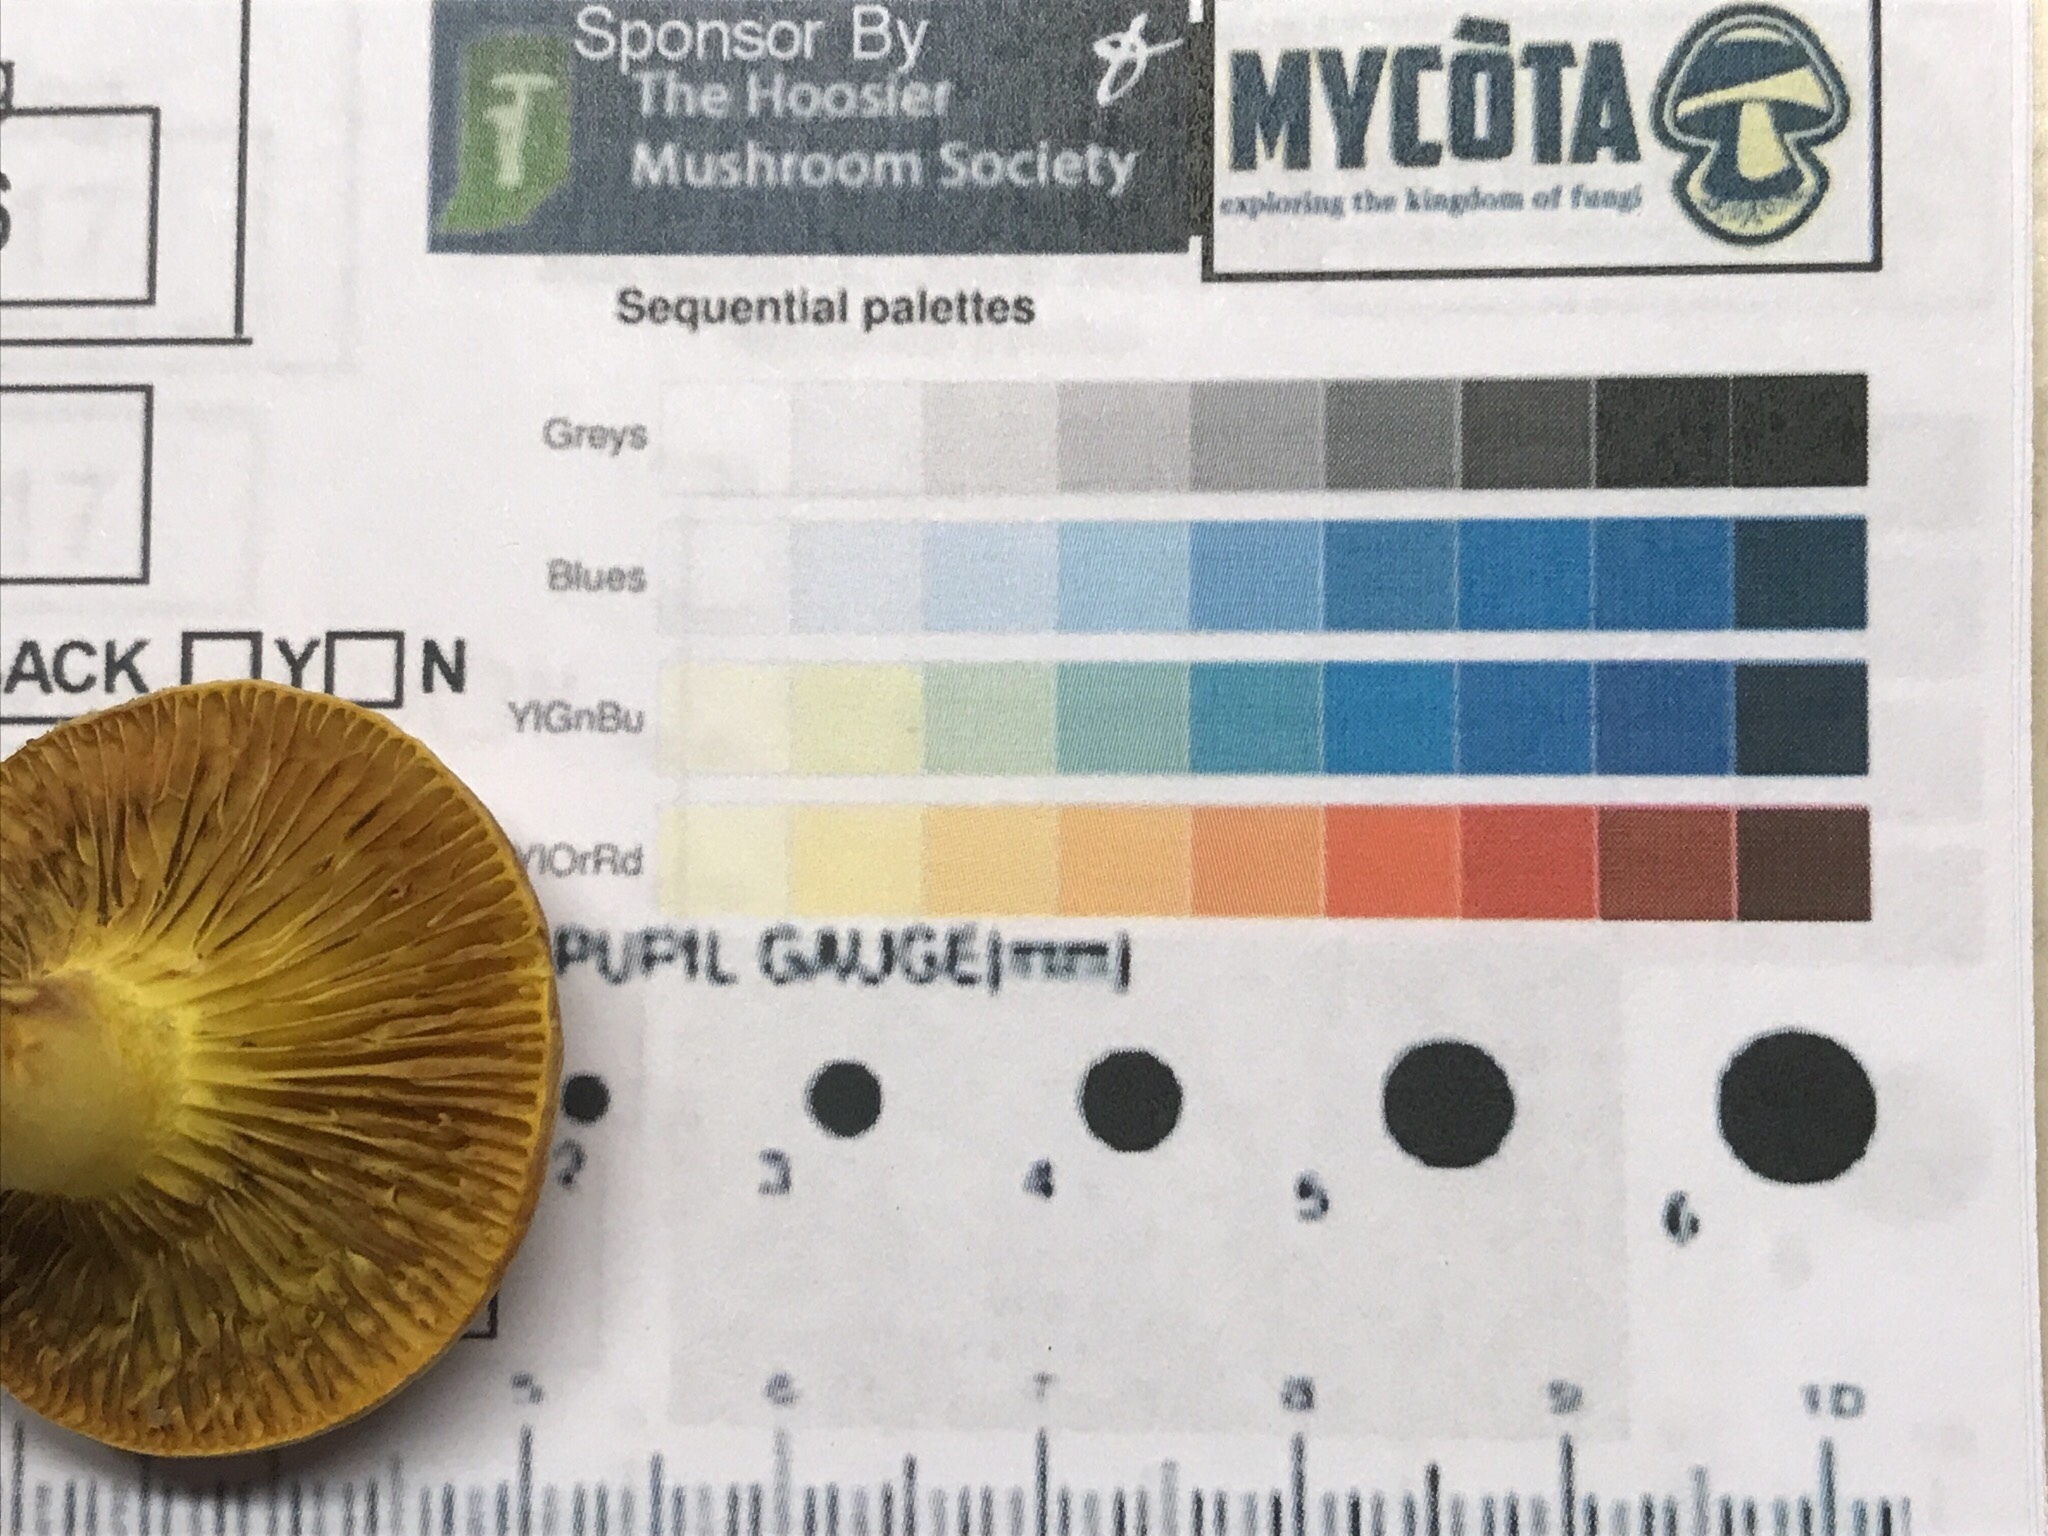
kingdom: Fungi
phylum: Basidiomycota
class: Agaricomycetes
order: Boletales
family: Boletaceae
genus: Phylloporus
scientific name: Phylloporus rhodoxanthus
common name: Golden gilled bolete
